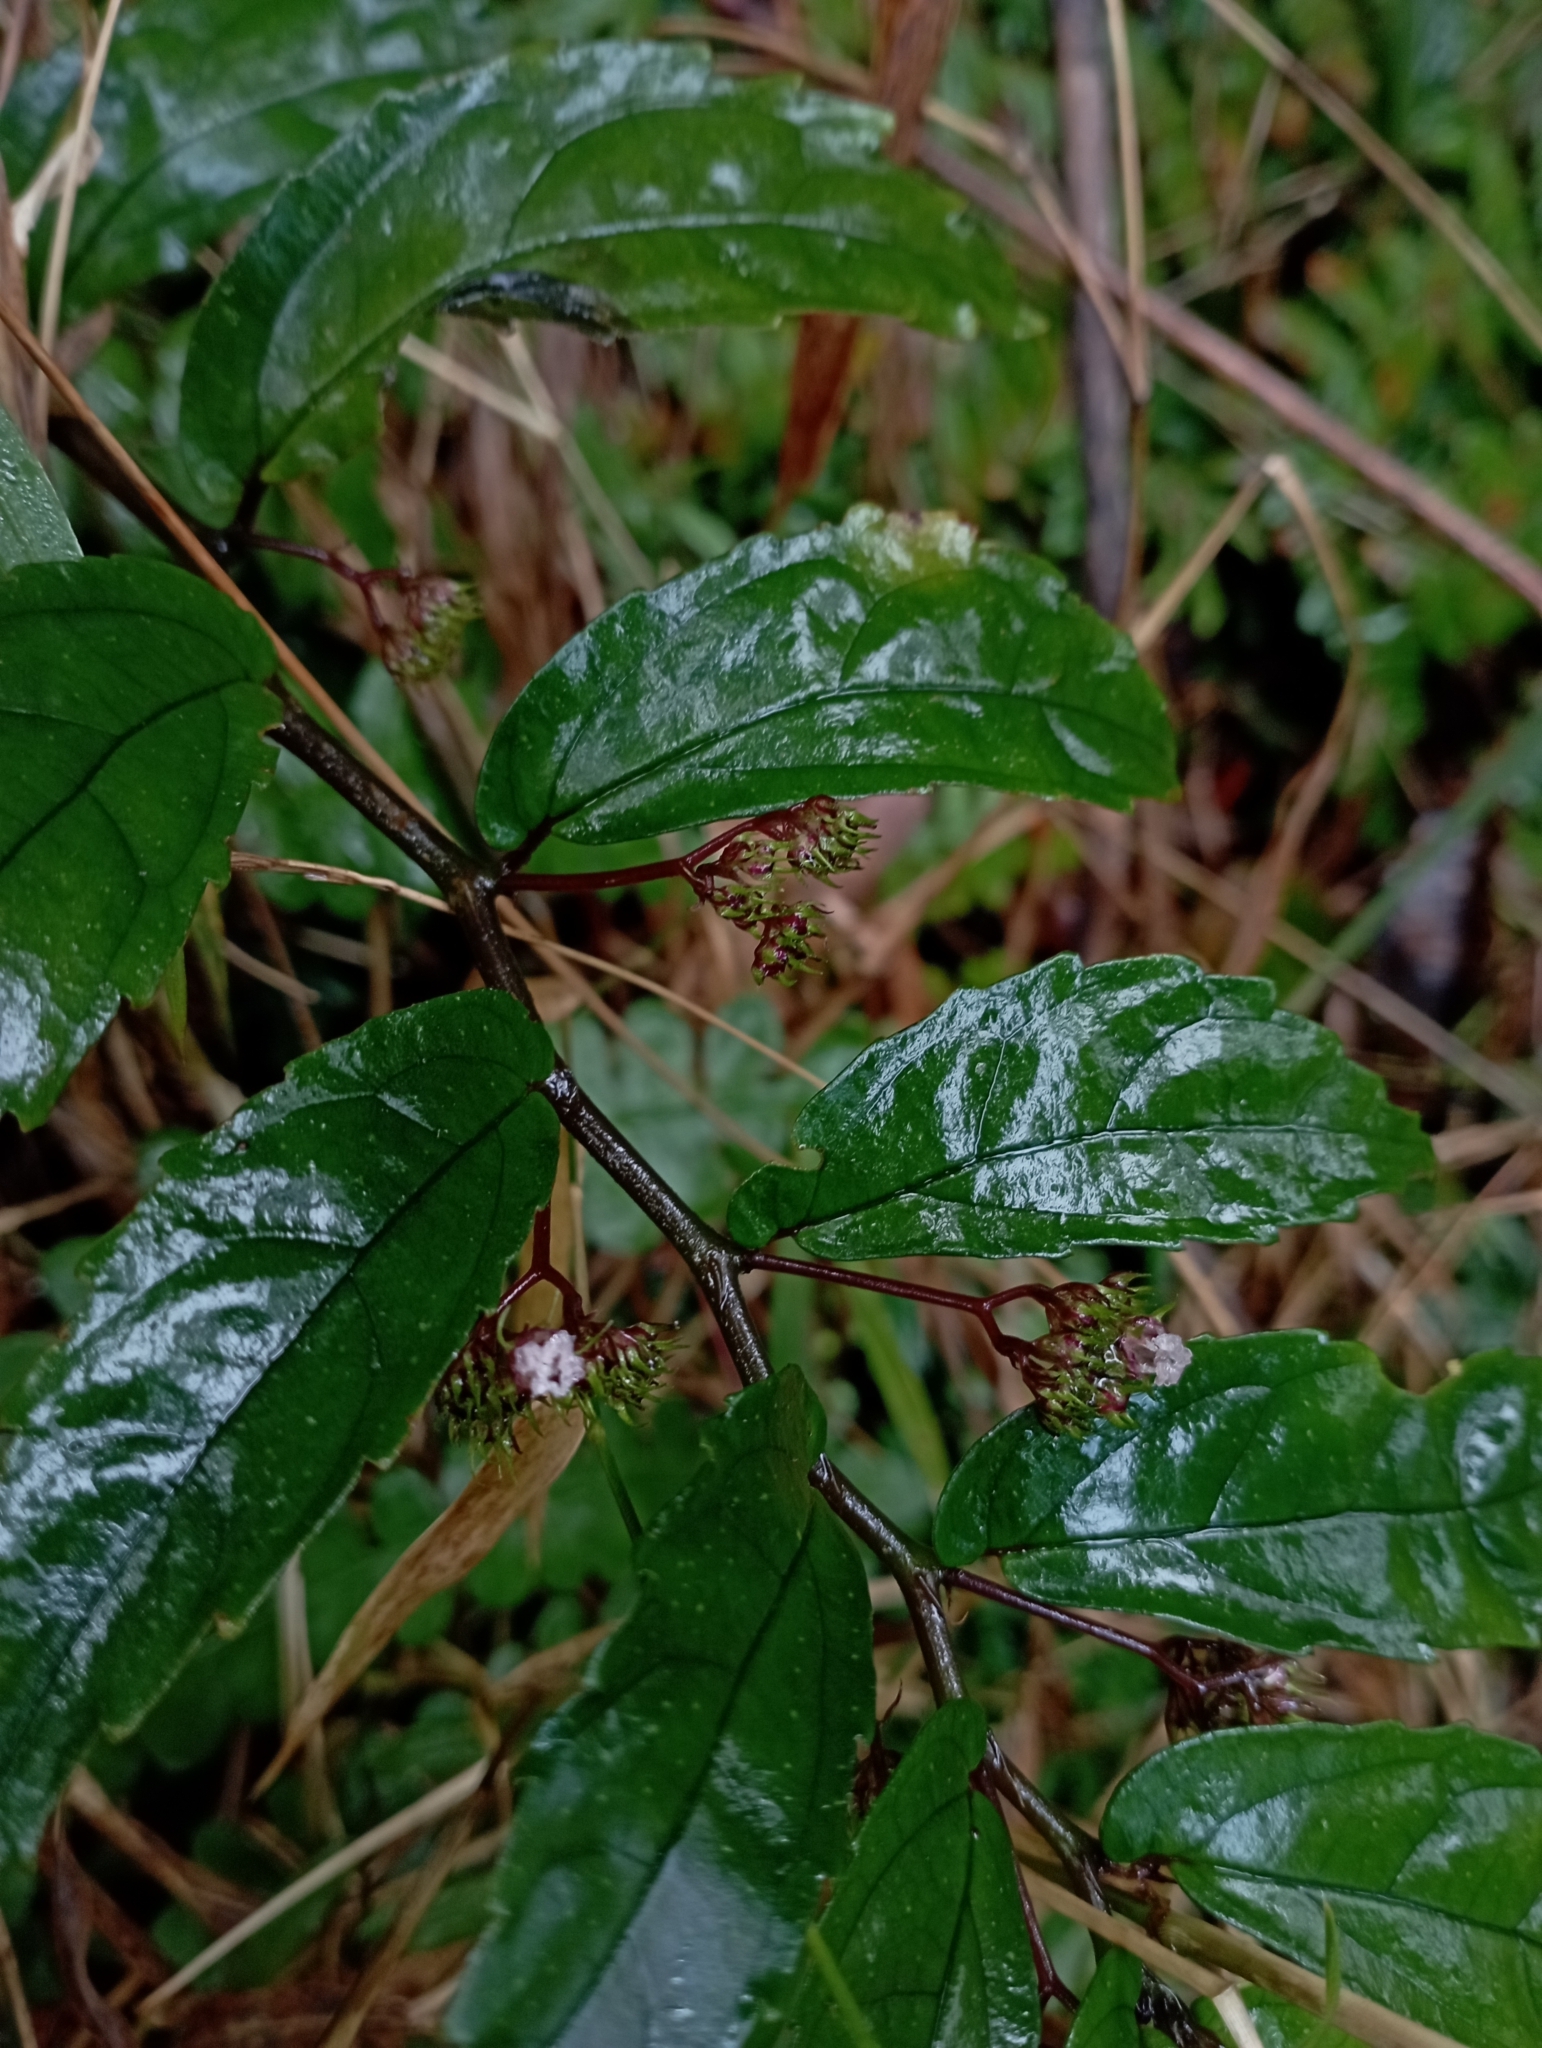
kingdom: Plantae
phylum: Tracheophyta
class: Magnoliopsida
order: Rosales
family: Urticaceae
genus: Elatostema
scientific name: Elatostema radicans
